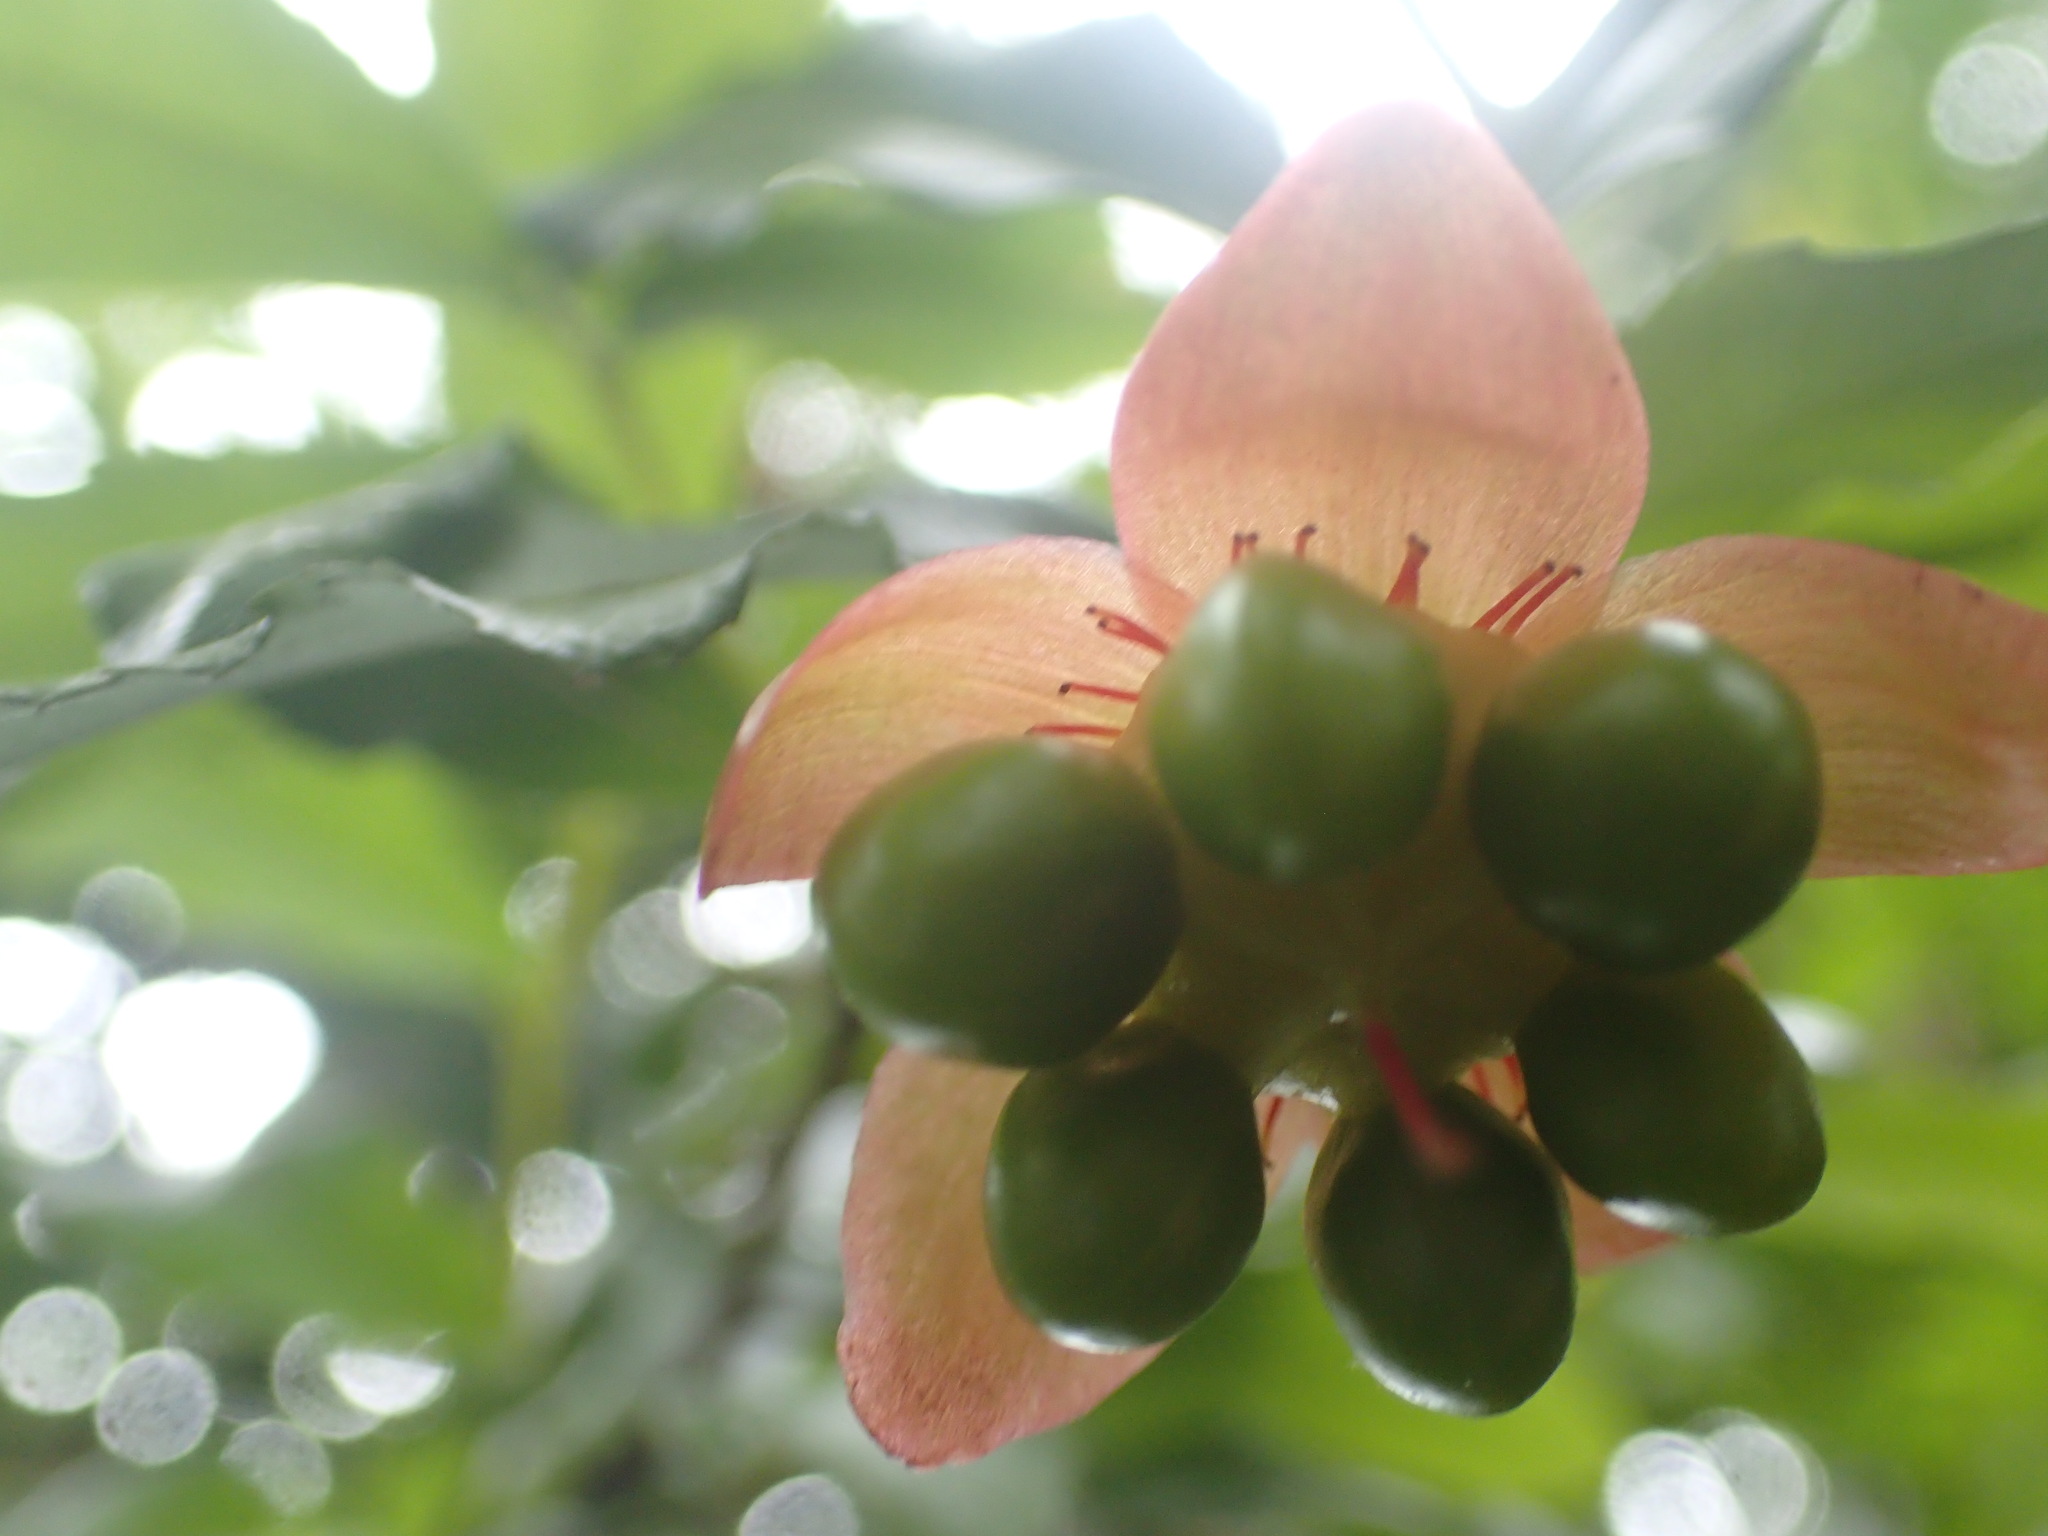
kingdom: Plantae
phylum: Tracheophyta
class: Magnoliopsida
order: Malpighiales
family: Ochnaceae
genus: Ochna
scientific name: Ochna serrulata
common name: Mickey mouse plant
